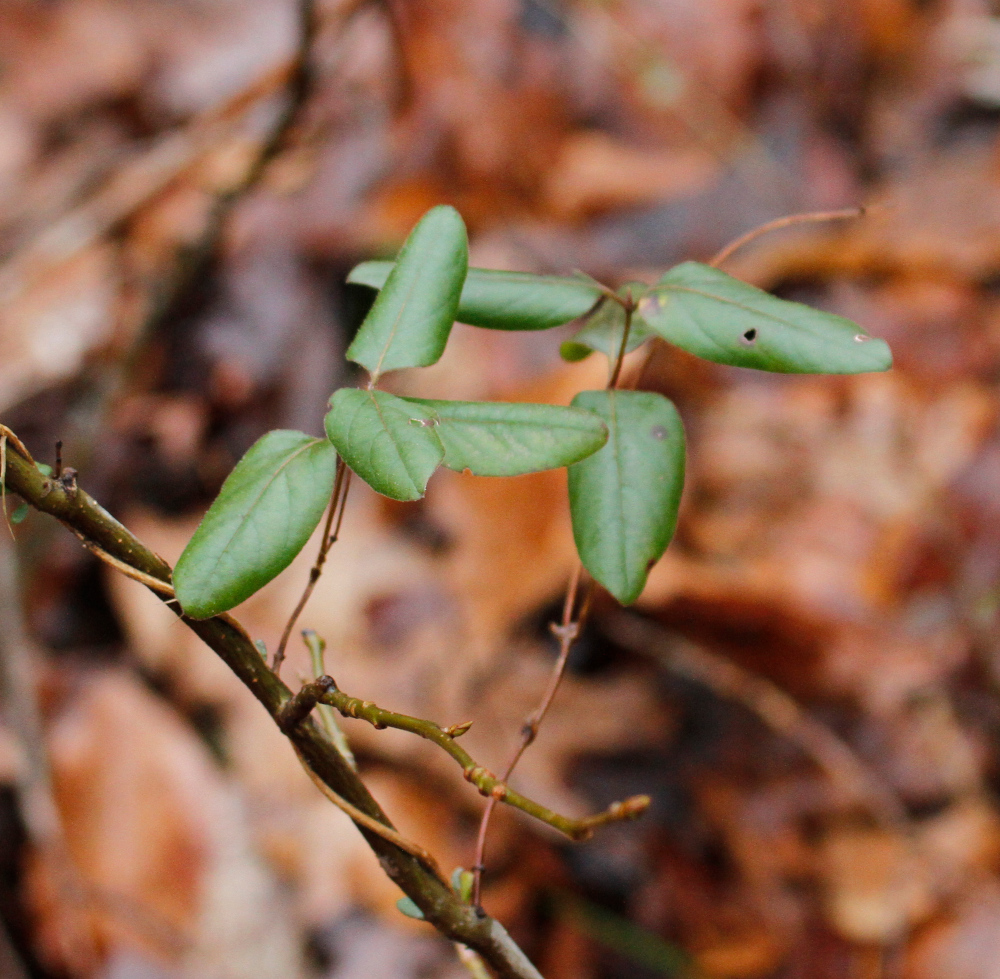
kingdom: Plantae
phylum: Tracheophyta
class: Magnoliopsida
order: Dipsacales
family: Caprifoliaceae
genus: Lonicera
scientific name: Lonicera japonica
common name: Japanese honeysuckle
